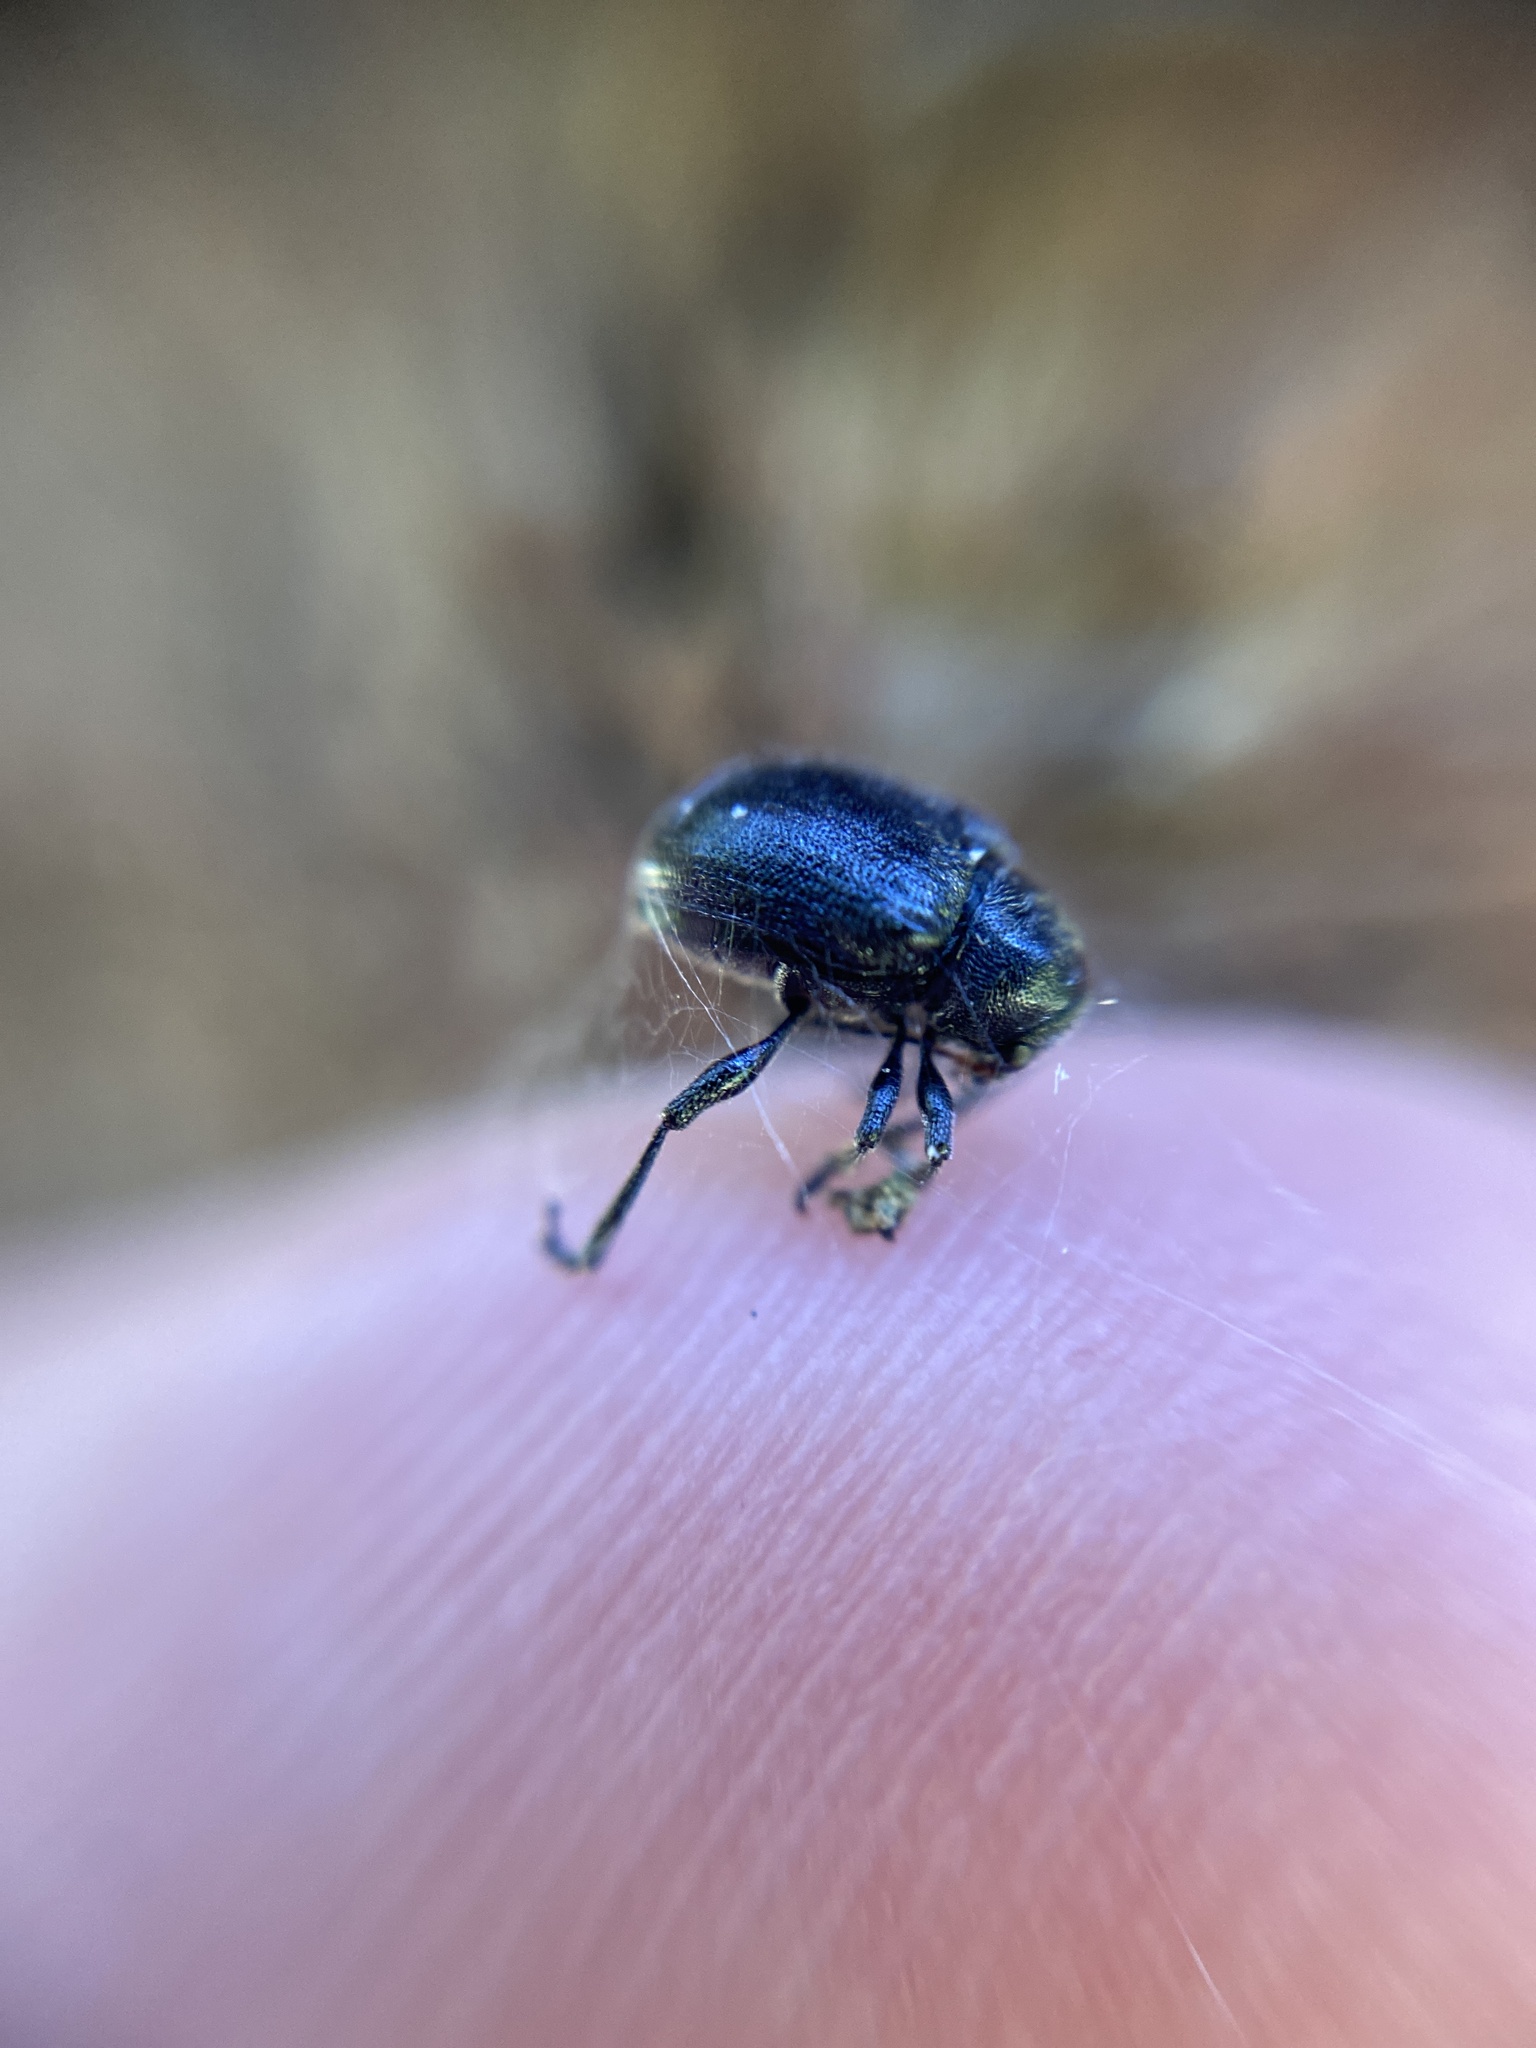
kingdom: Animalia
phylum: Arthropoda
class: Insecta
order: Coleoptera
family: Chrysomelidae
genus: Bromius
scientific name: Bromius obscurus
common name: Western grape rootworm
